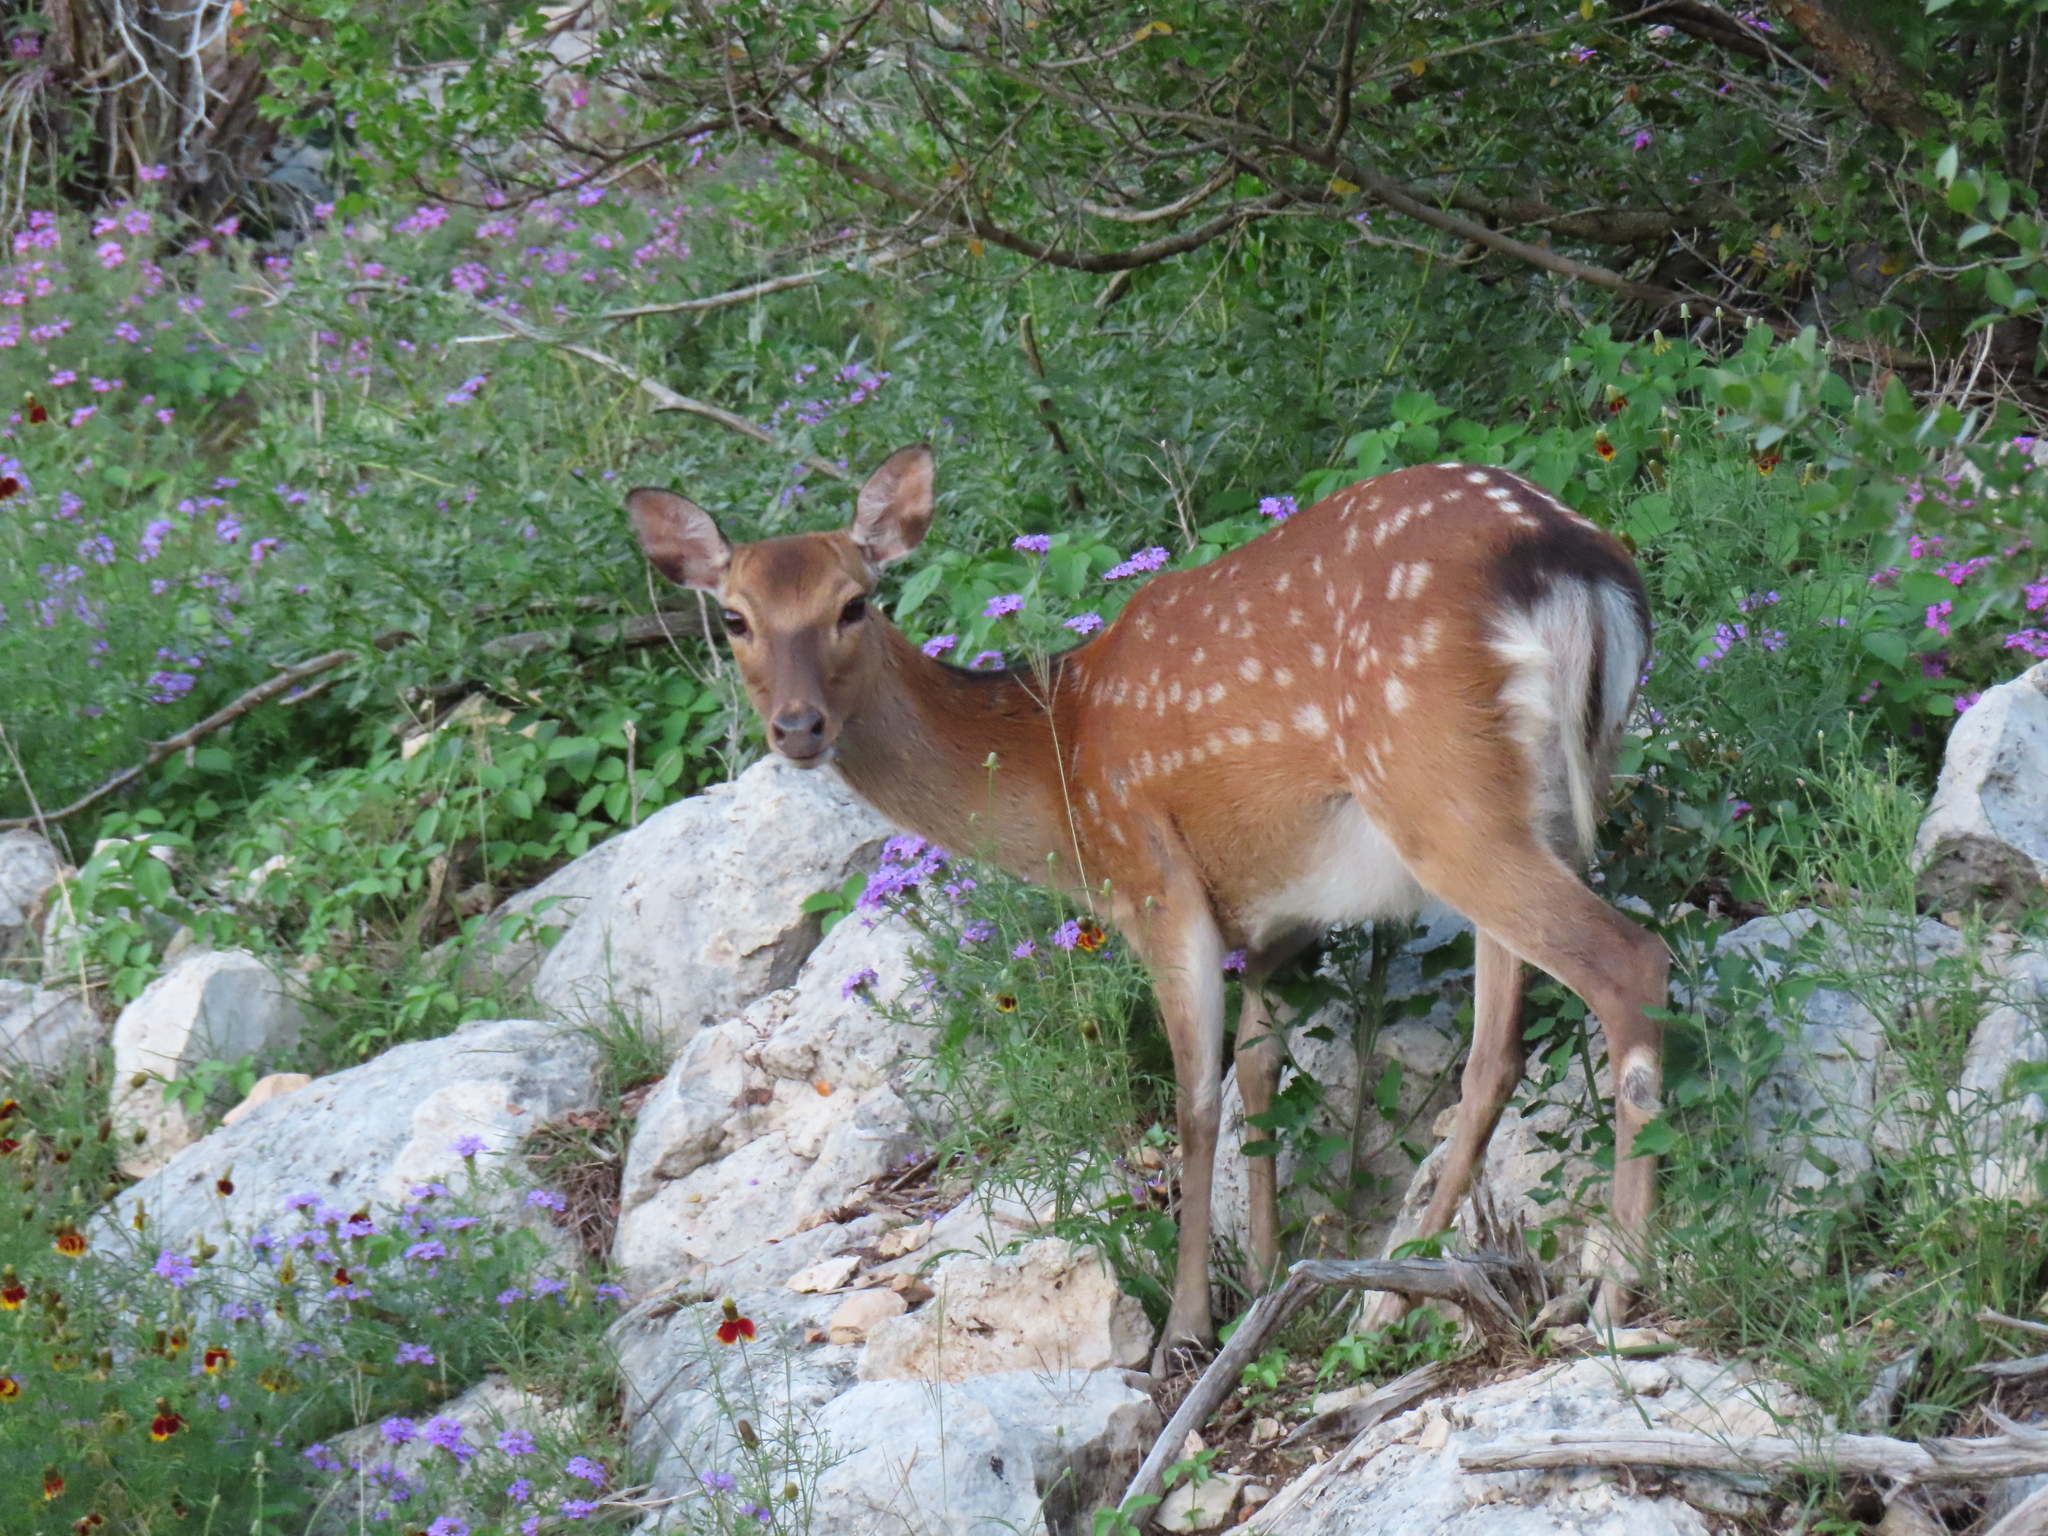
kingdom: Animalia
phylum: Chordata
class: Mammalia
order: Artiodactyla
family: Cervidae
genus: Cervus
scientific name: Cervus nippon
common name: Sika deer
